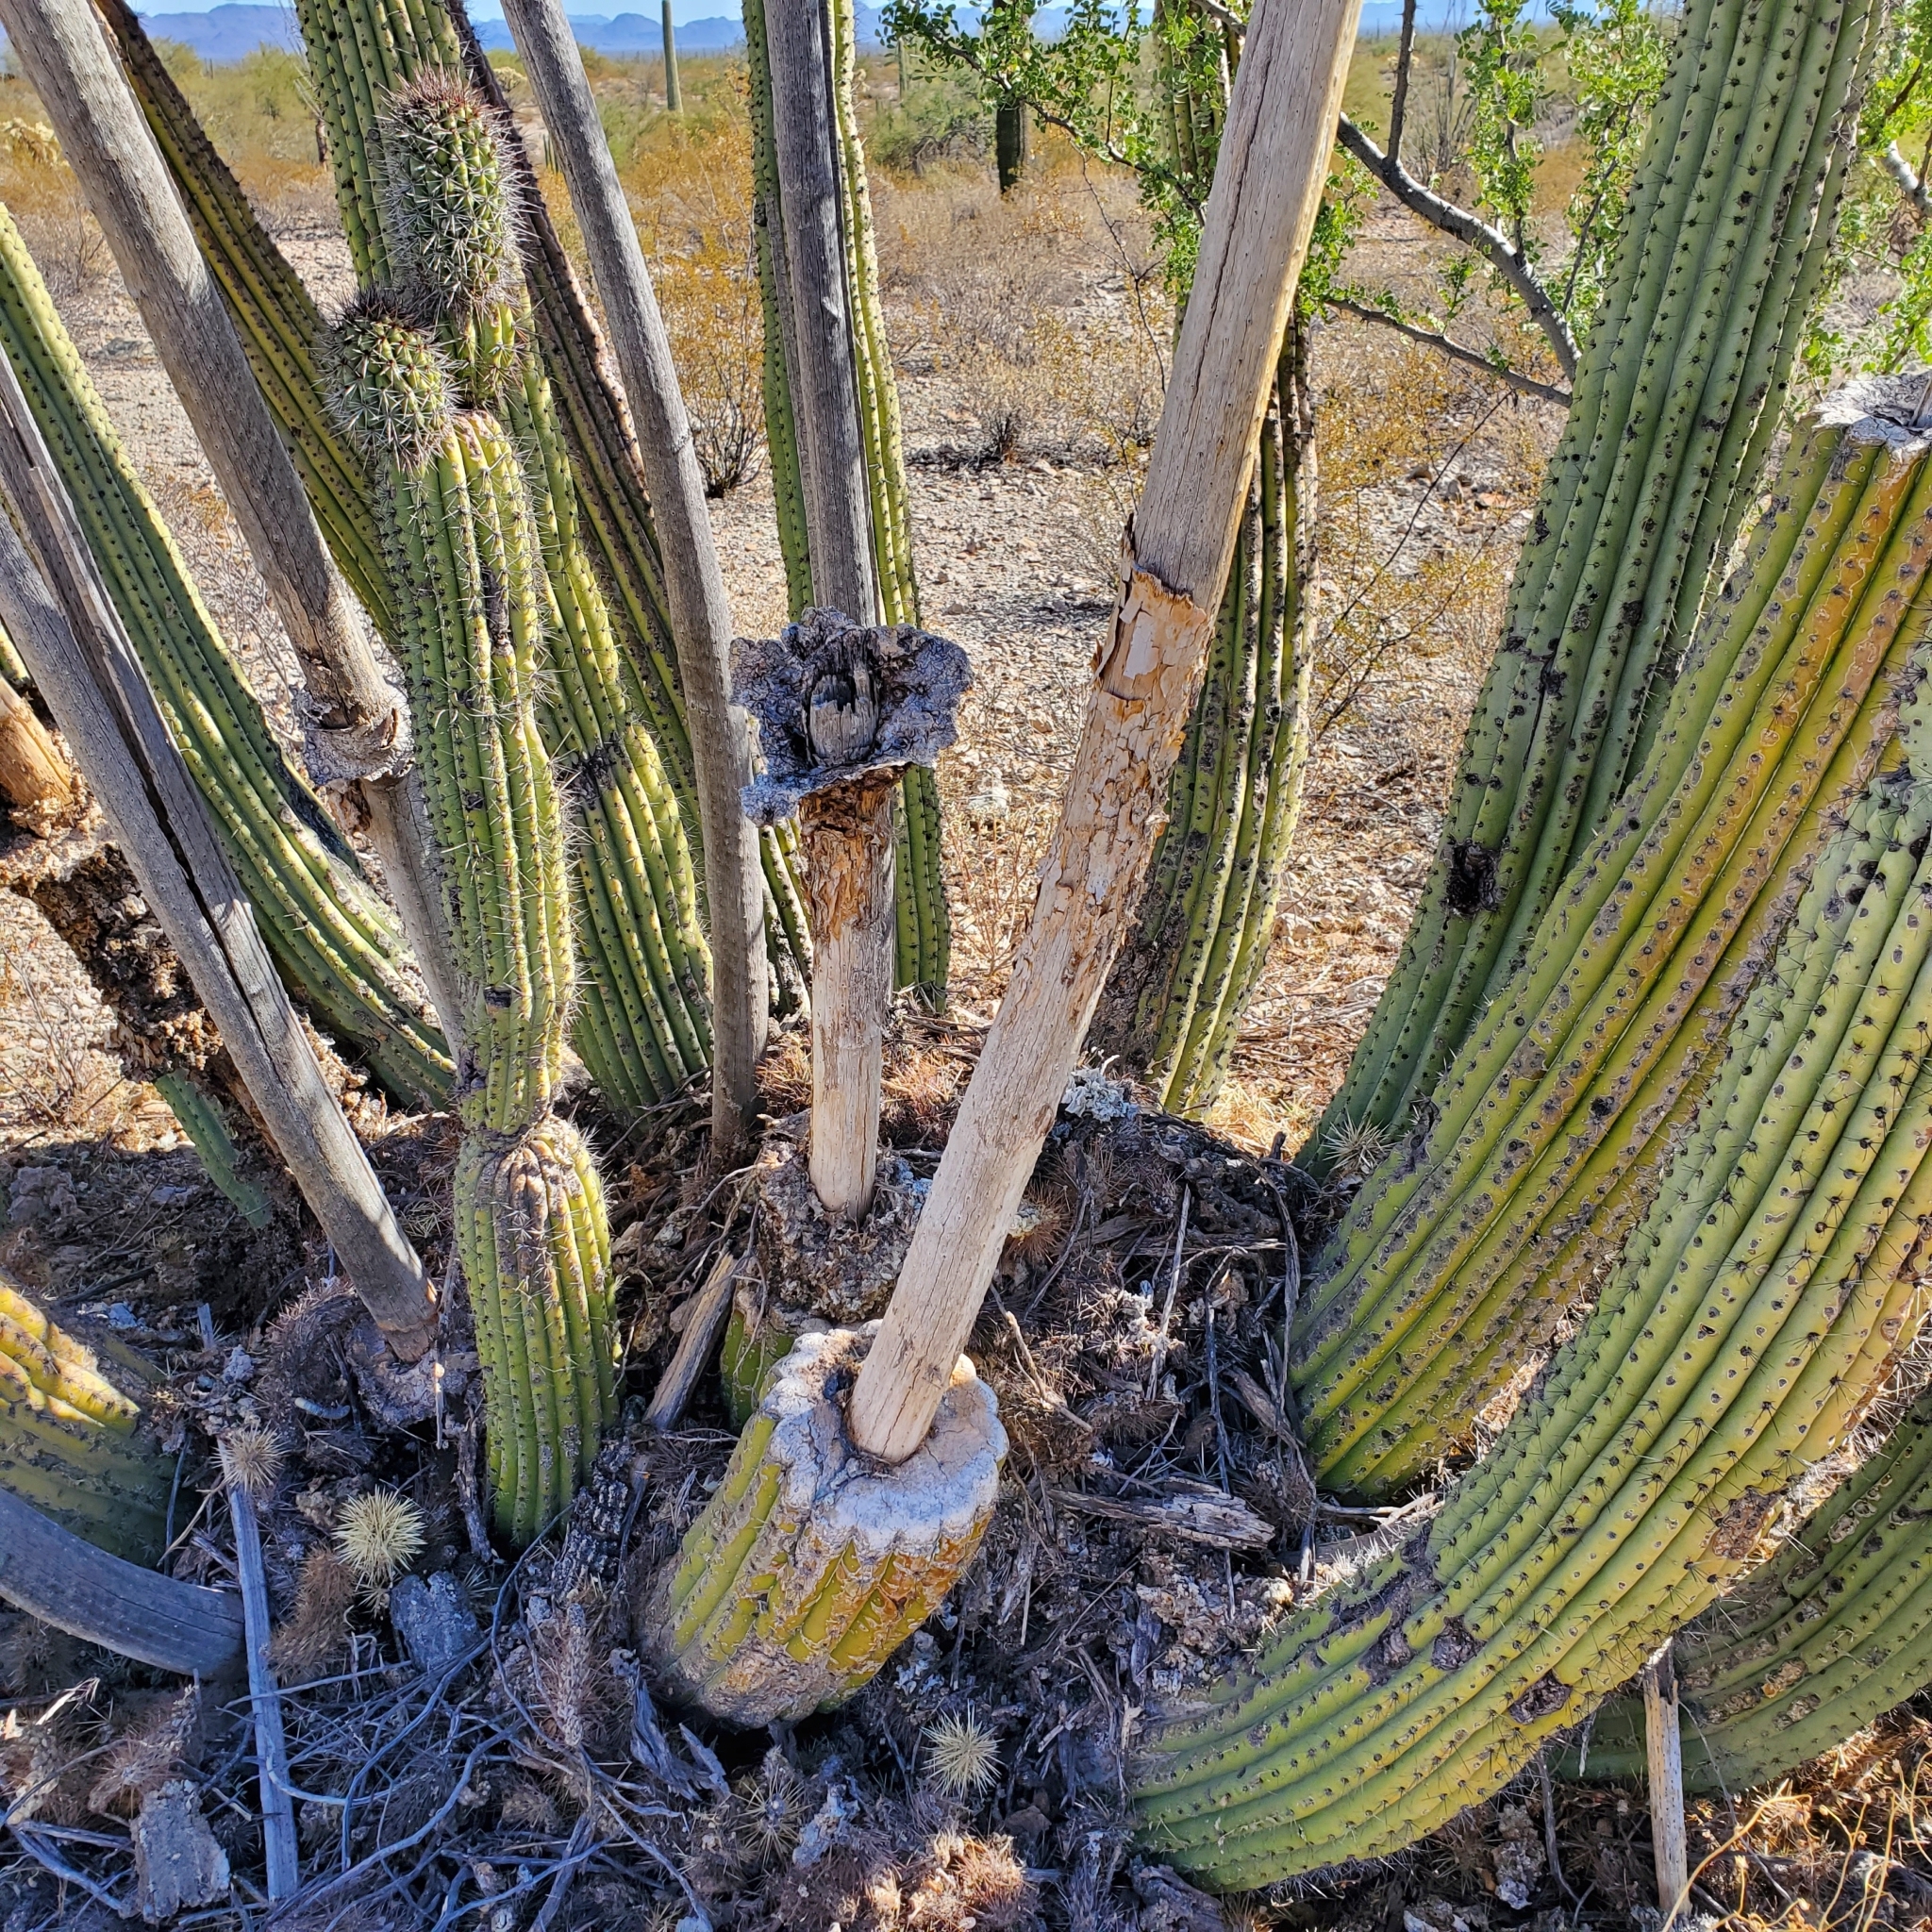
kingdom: Plantae
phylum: Tracheophyta
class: Magnoliopsida
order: Caryophyllales
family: Cactaceae
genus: Stenocereus
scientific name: Stenocereus thurberi
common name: Organ pipe cactus
